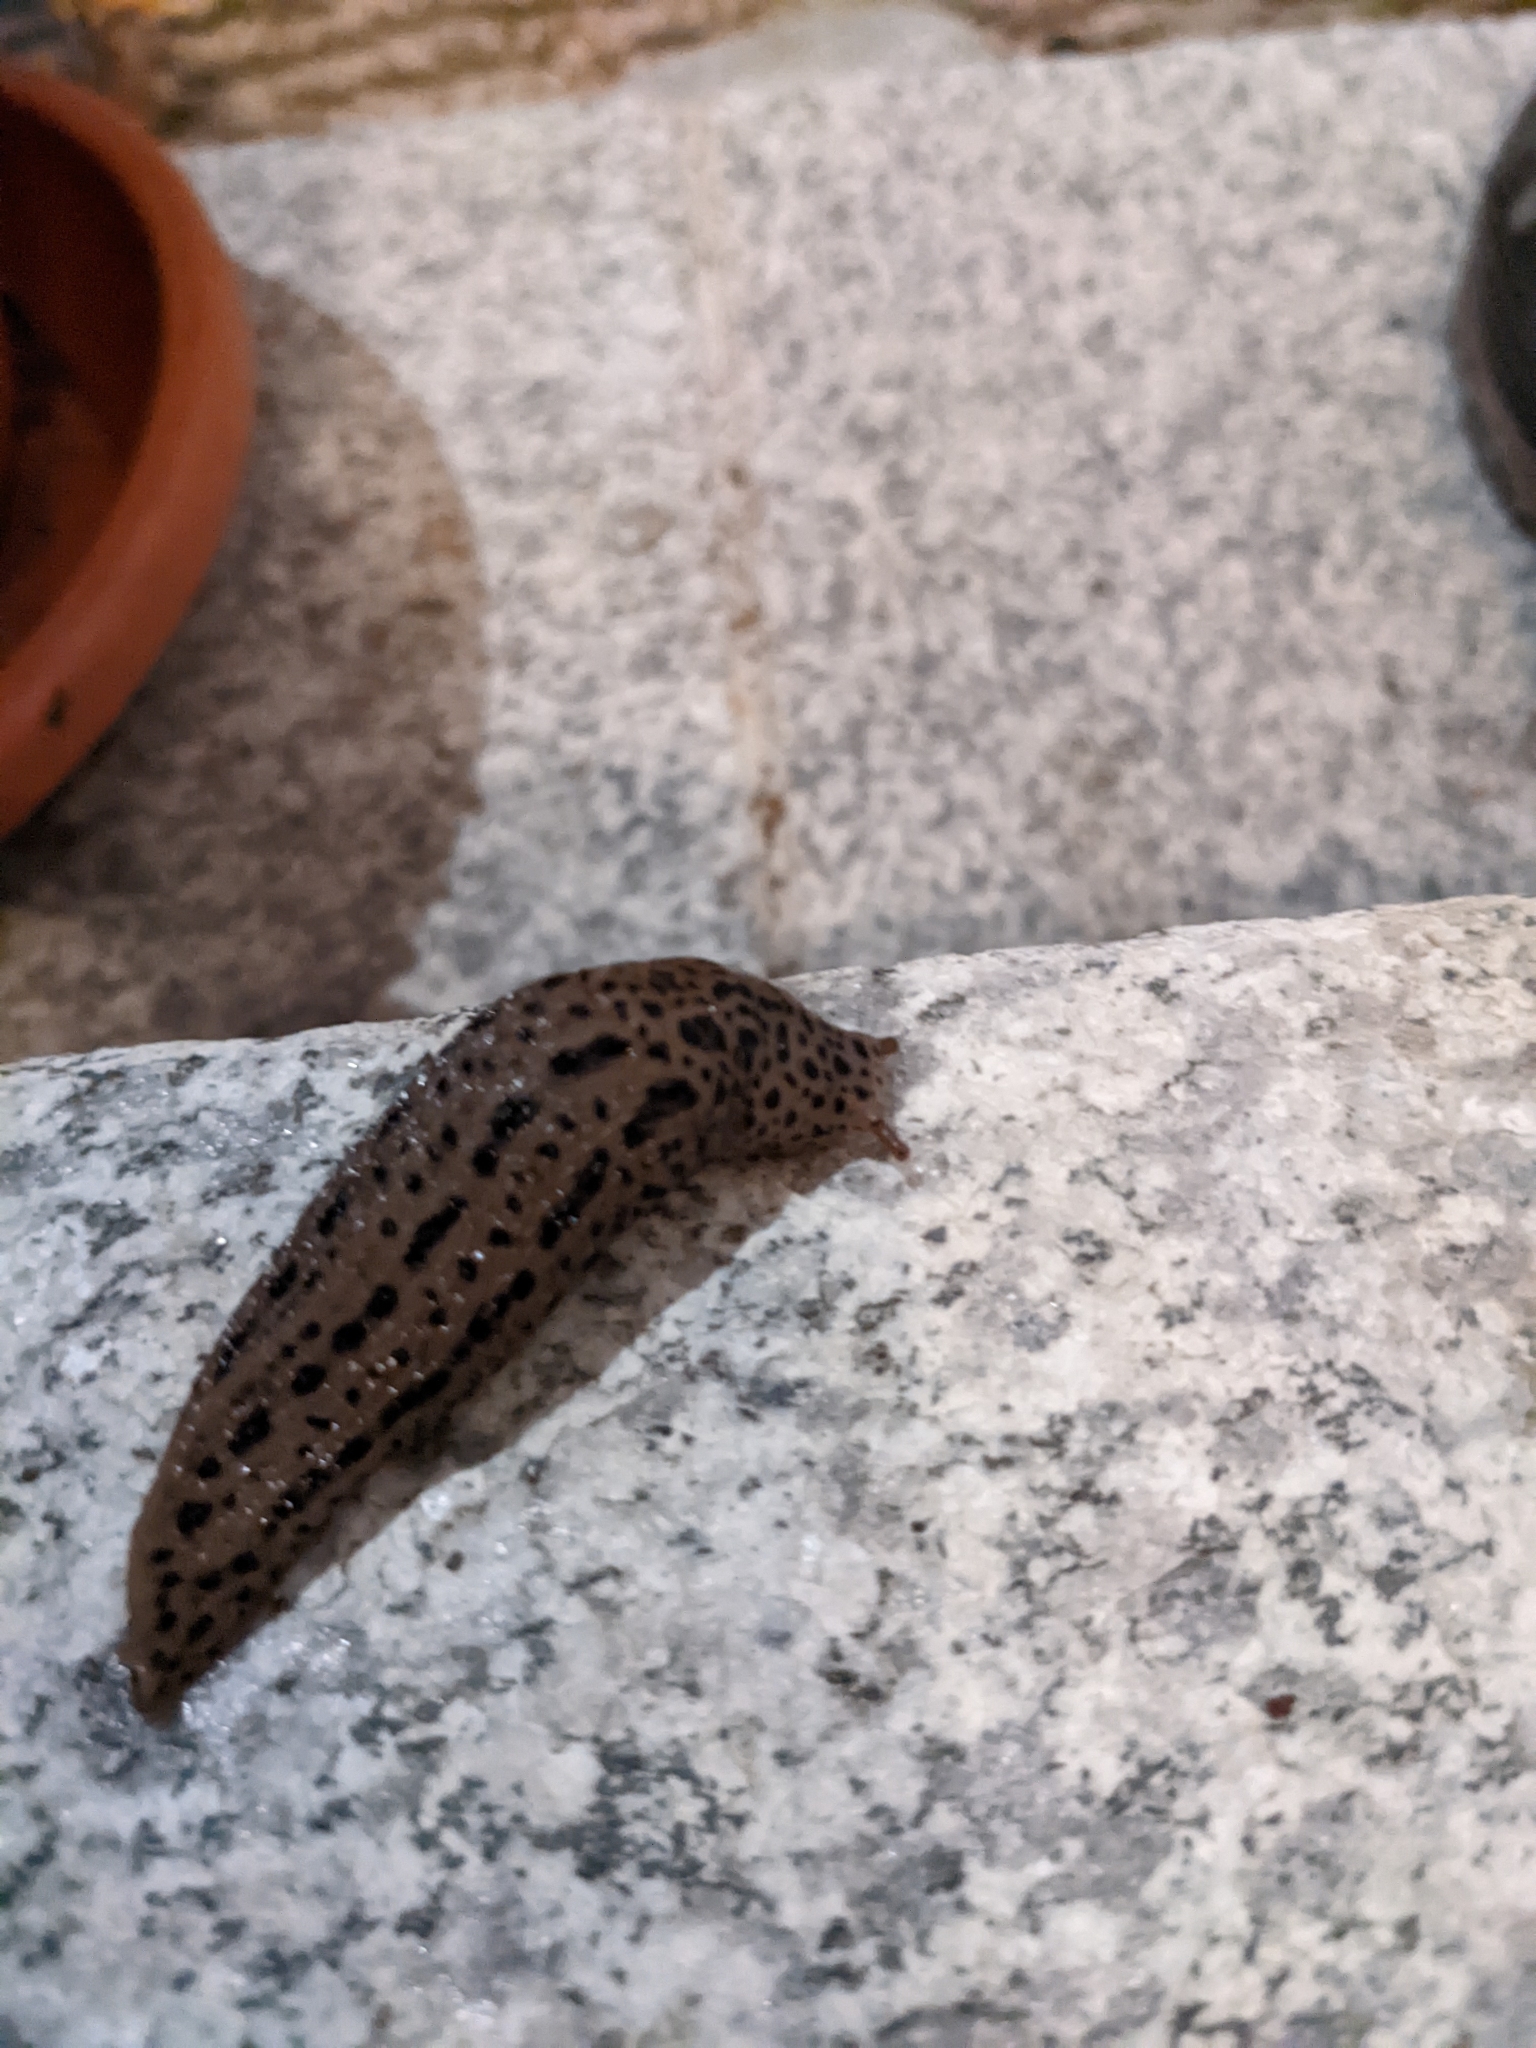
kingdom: Animalia
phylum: Mollusca
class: Gastropoda
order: Stylommatophora
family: Limacidae
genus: Limax
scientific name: Limax maximus
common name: Great grey slug
